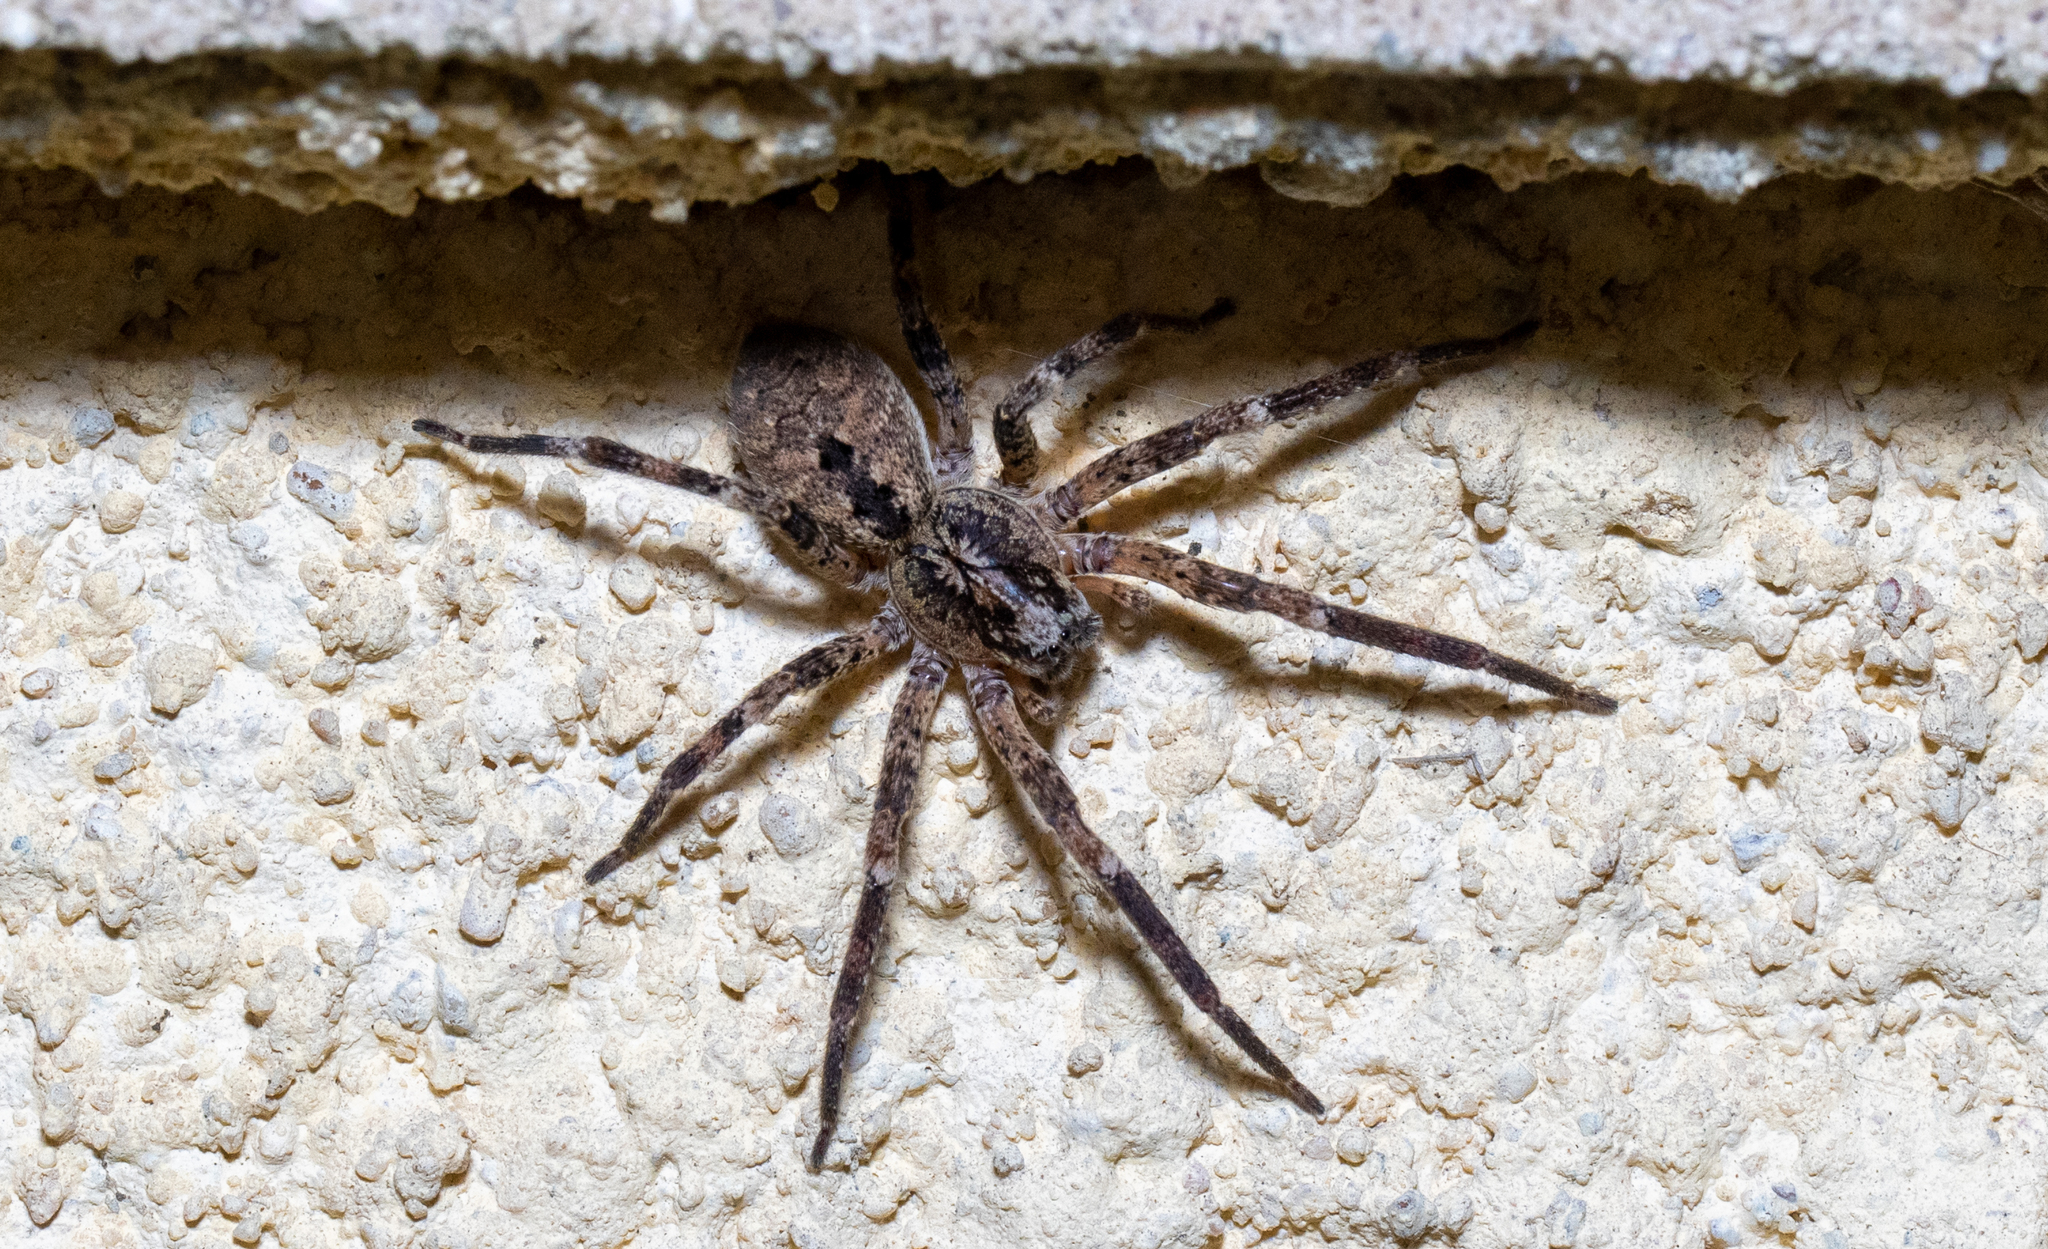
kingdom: Animalia
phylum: Arthropoda
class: Arachnida
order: Araneae
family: Zoropsidae
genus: Zoropsis
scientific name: Zoropsis spinimana
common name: Zoropsid spider
